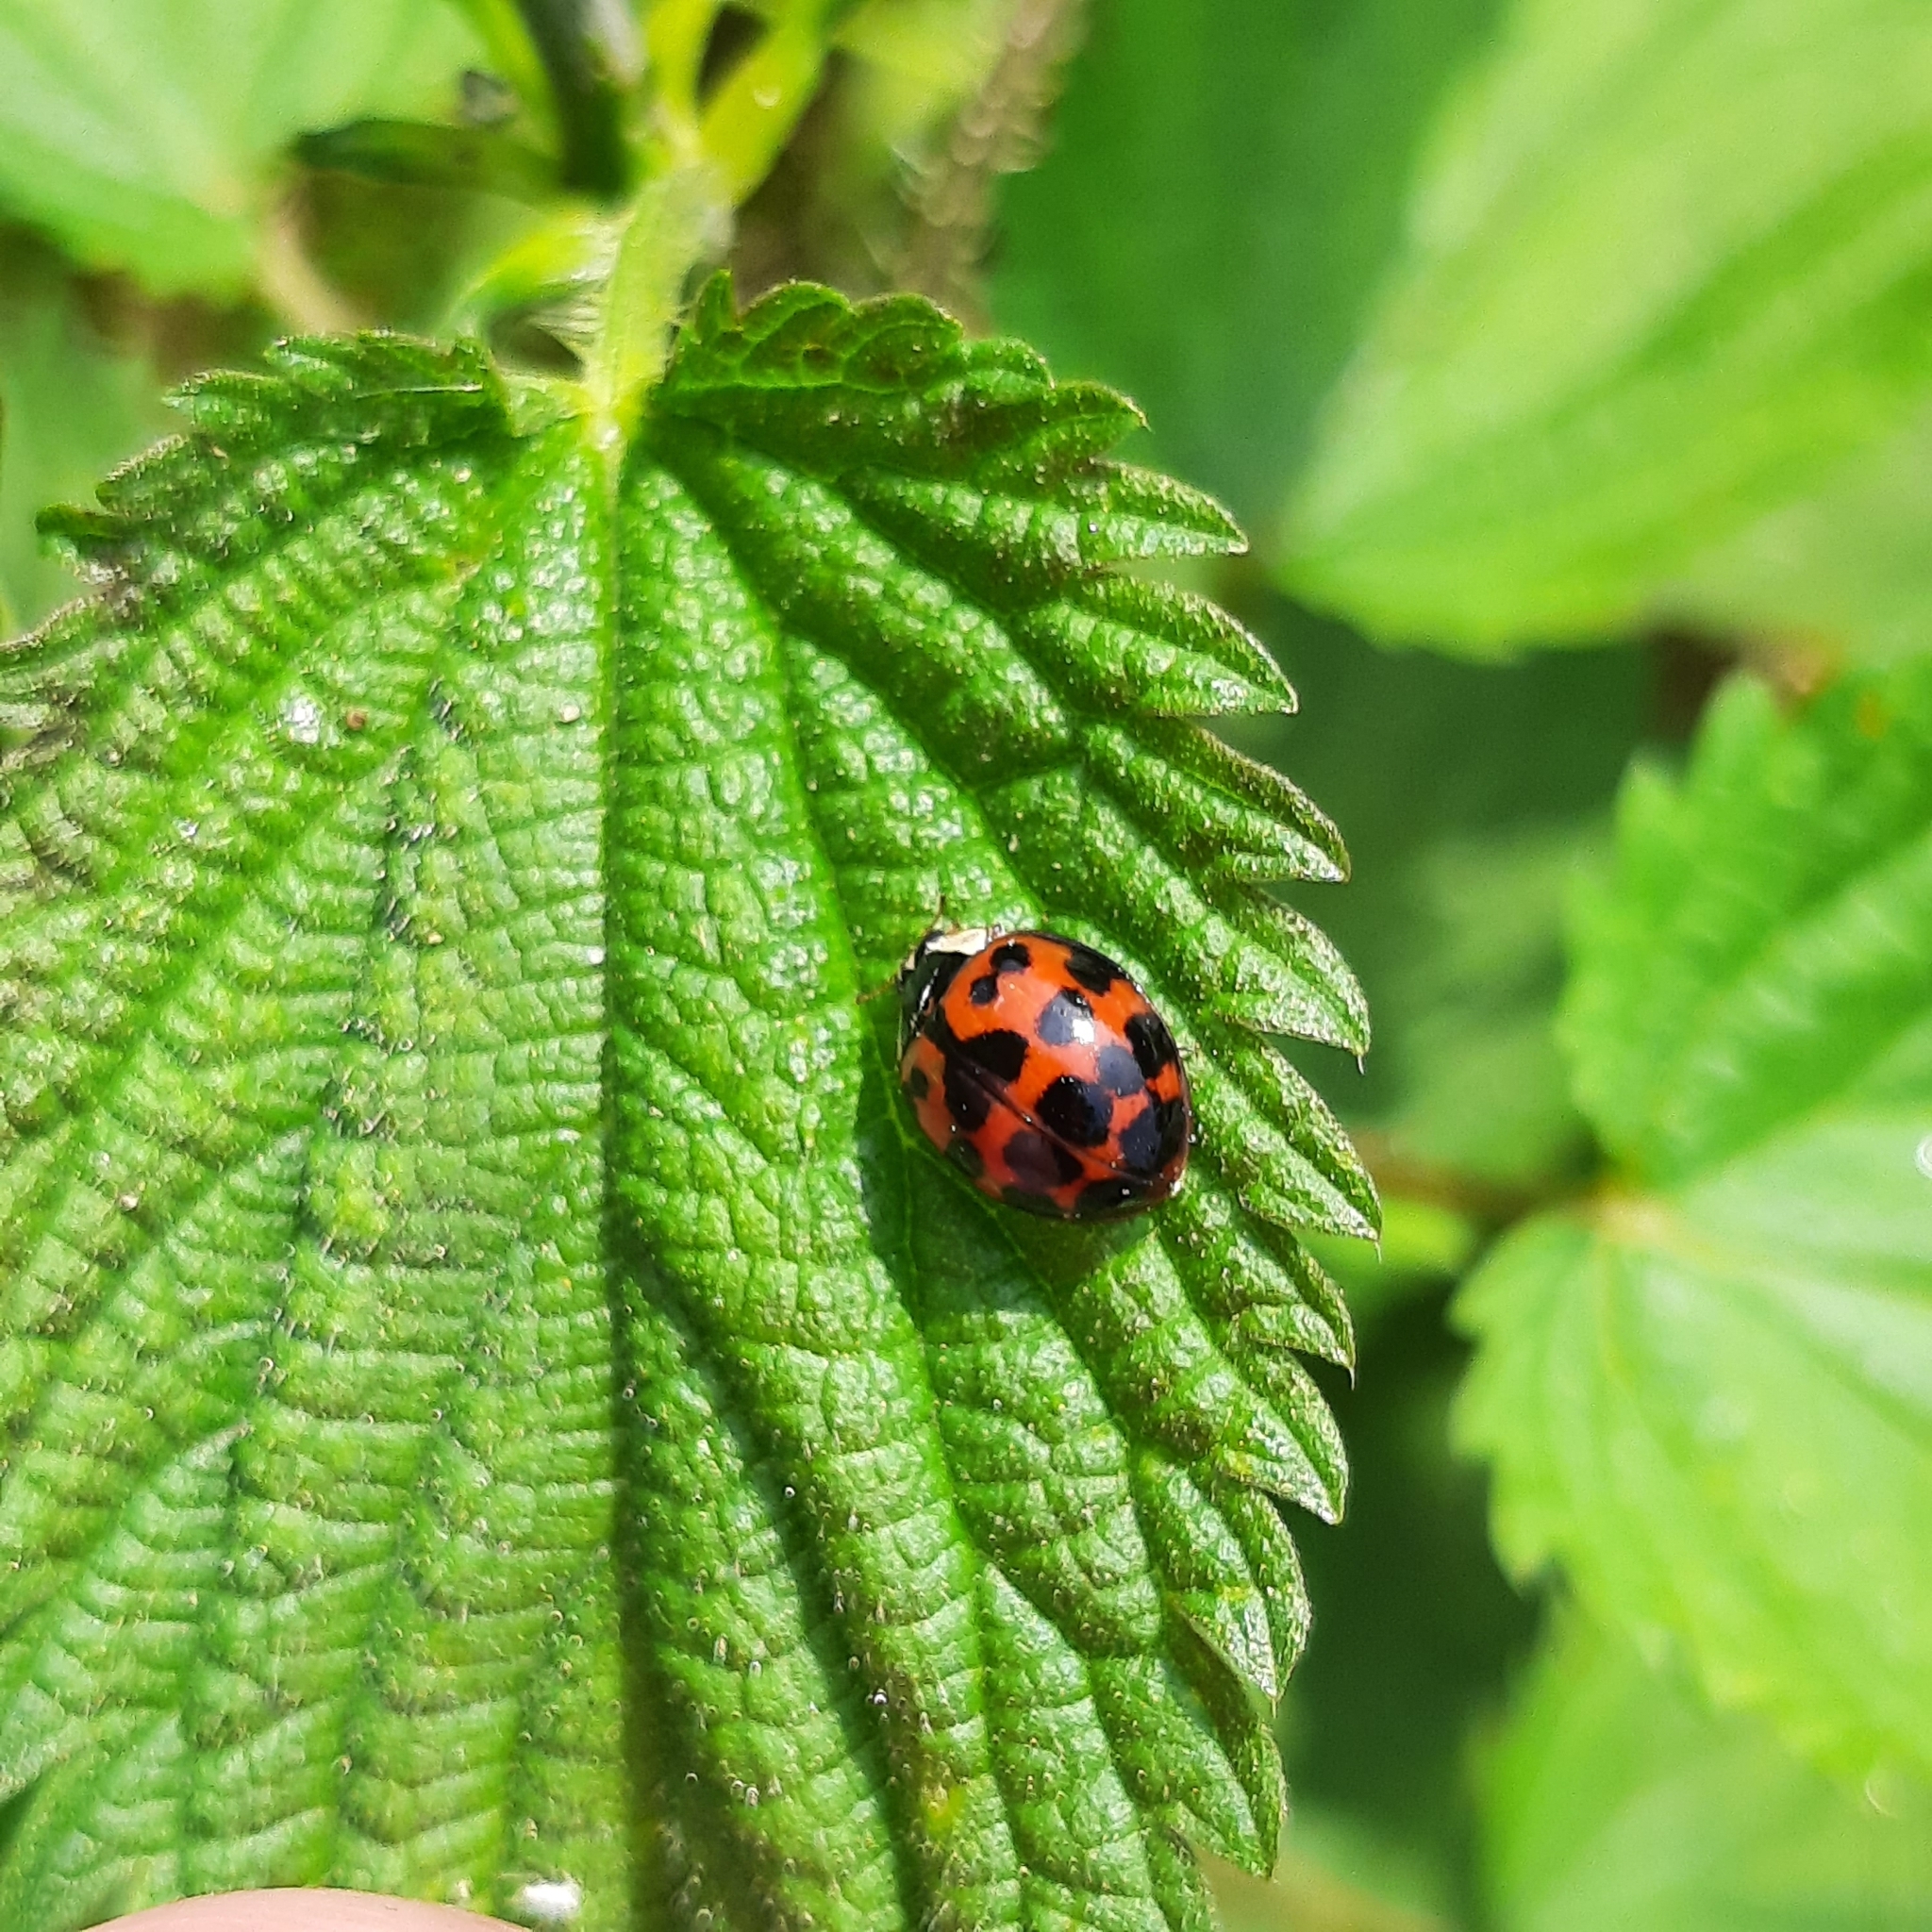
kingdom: Animalia
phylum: Arthropoda
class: Insecta
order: Coleoptera
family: Coccinellidae
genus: Harmonia
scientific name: Harmonia axyridis
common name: Harlequin ladybird
